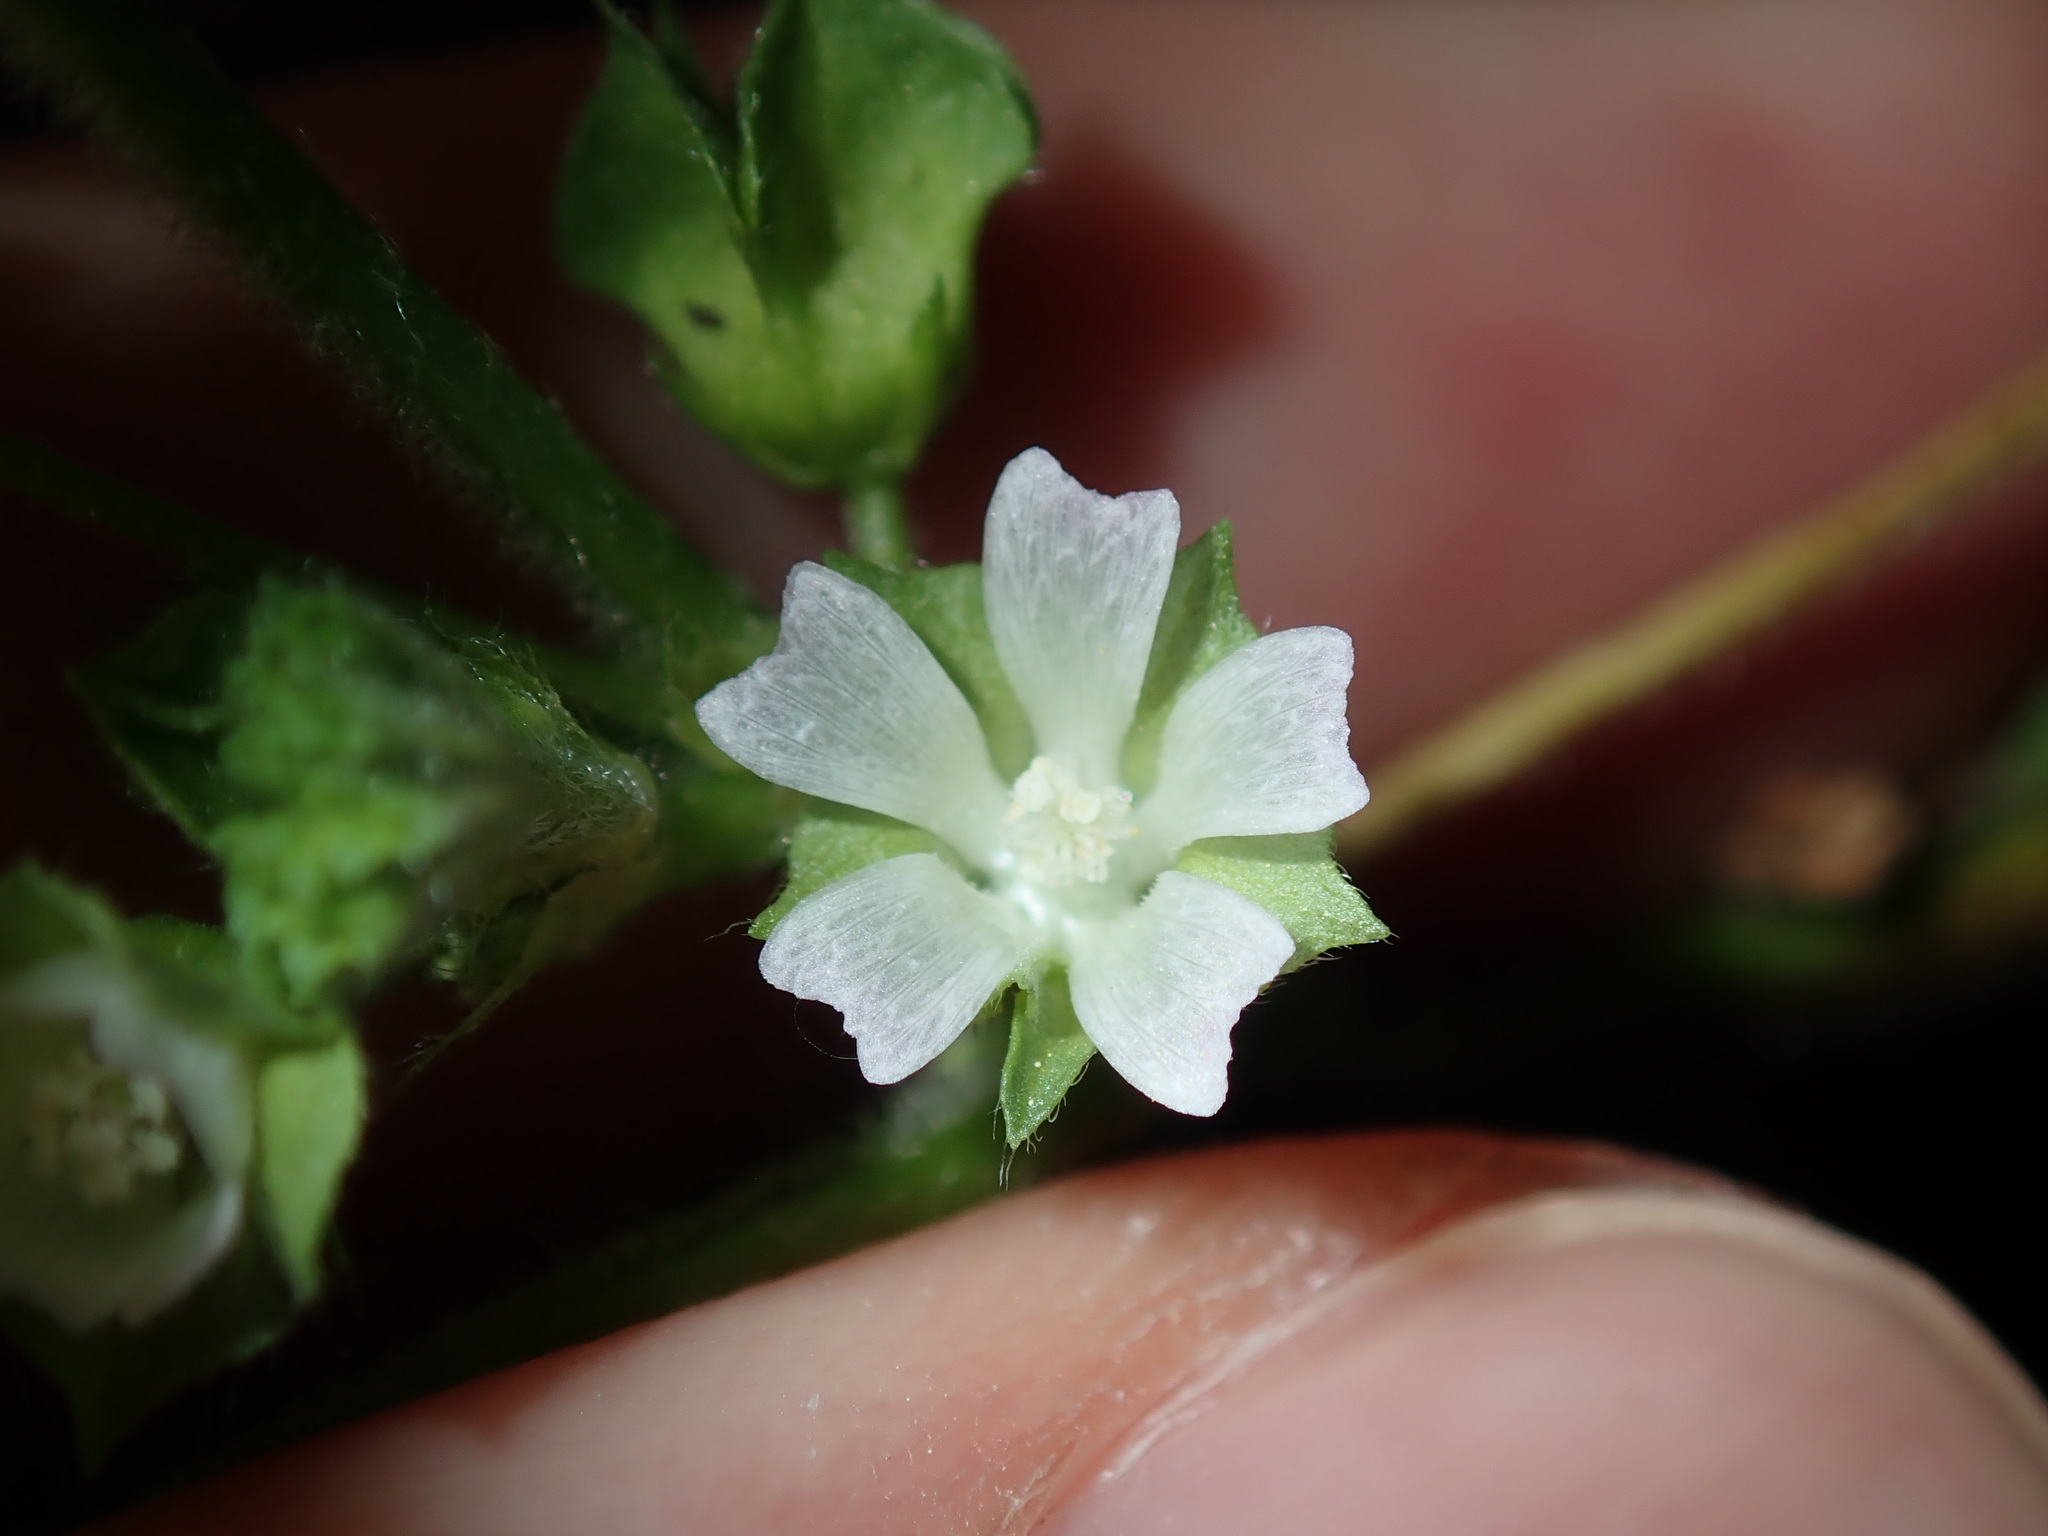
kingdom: Plantae
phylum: Tracheophyta
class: Magnoliopsida
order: Malvales
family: Malvaceae
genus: Malva
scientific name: Malva parviflora
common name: Least mallow
